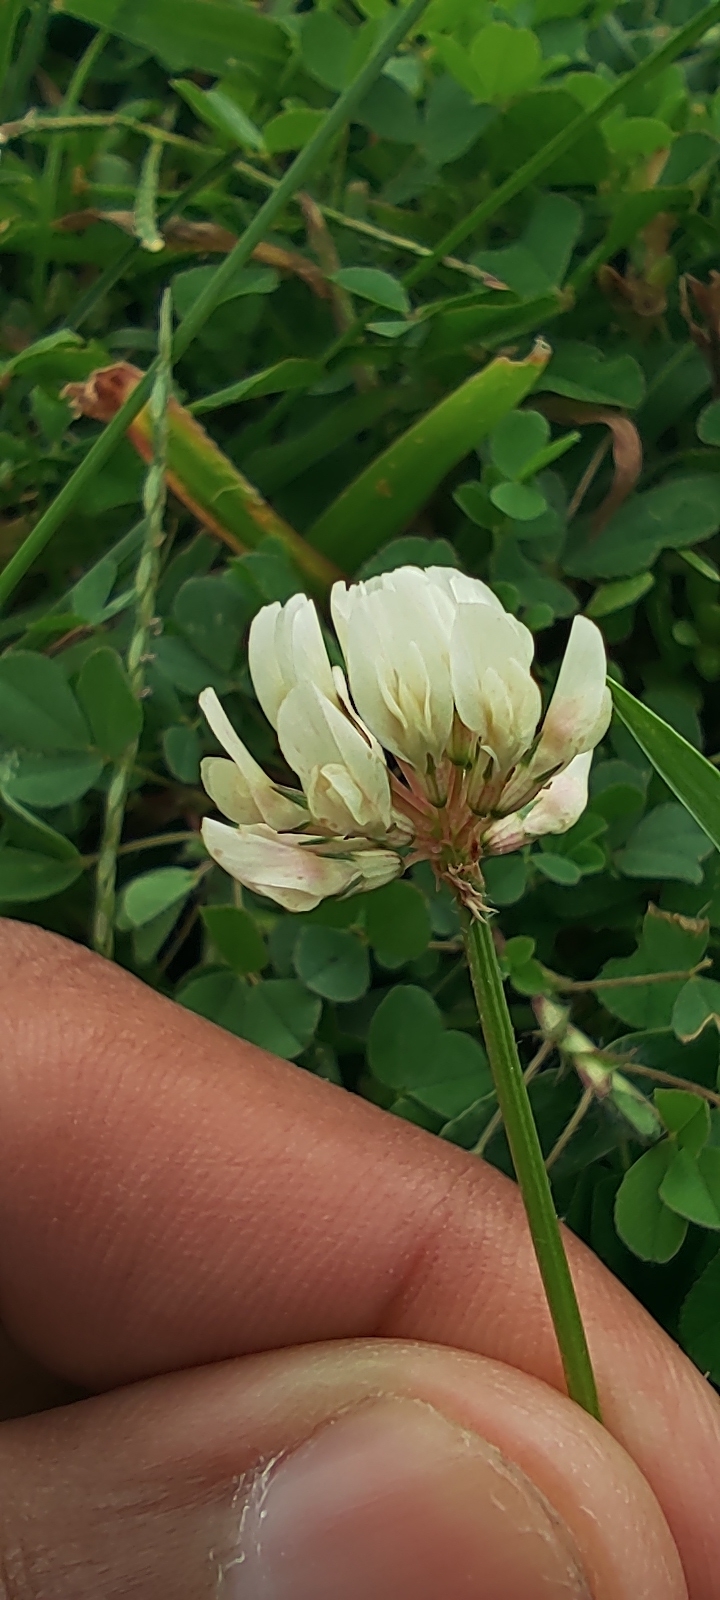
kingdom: Plantae
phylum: Tracheophyta
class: Magnoliopsida
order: Fabales
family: Fabaceae
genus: Trifolium
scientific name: Trifolium repens
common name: White clover
